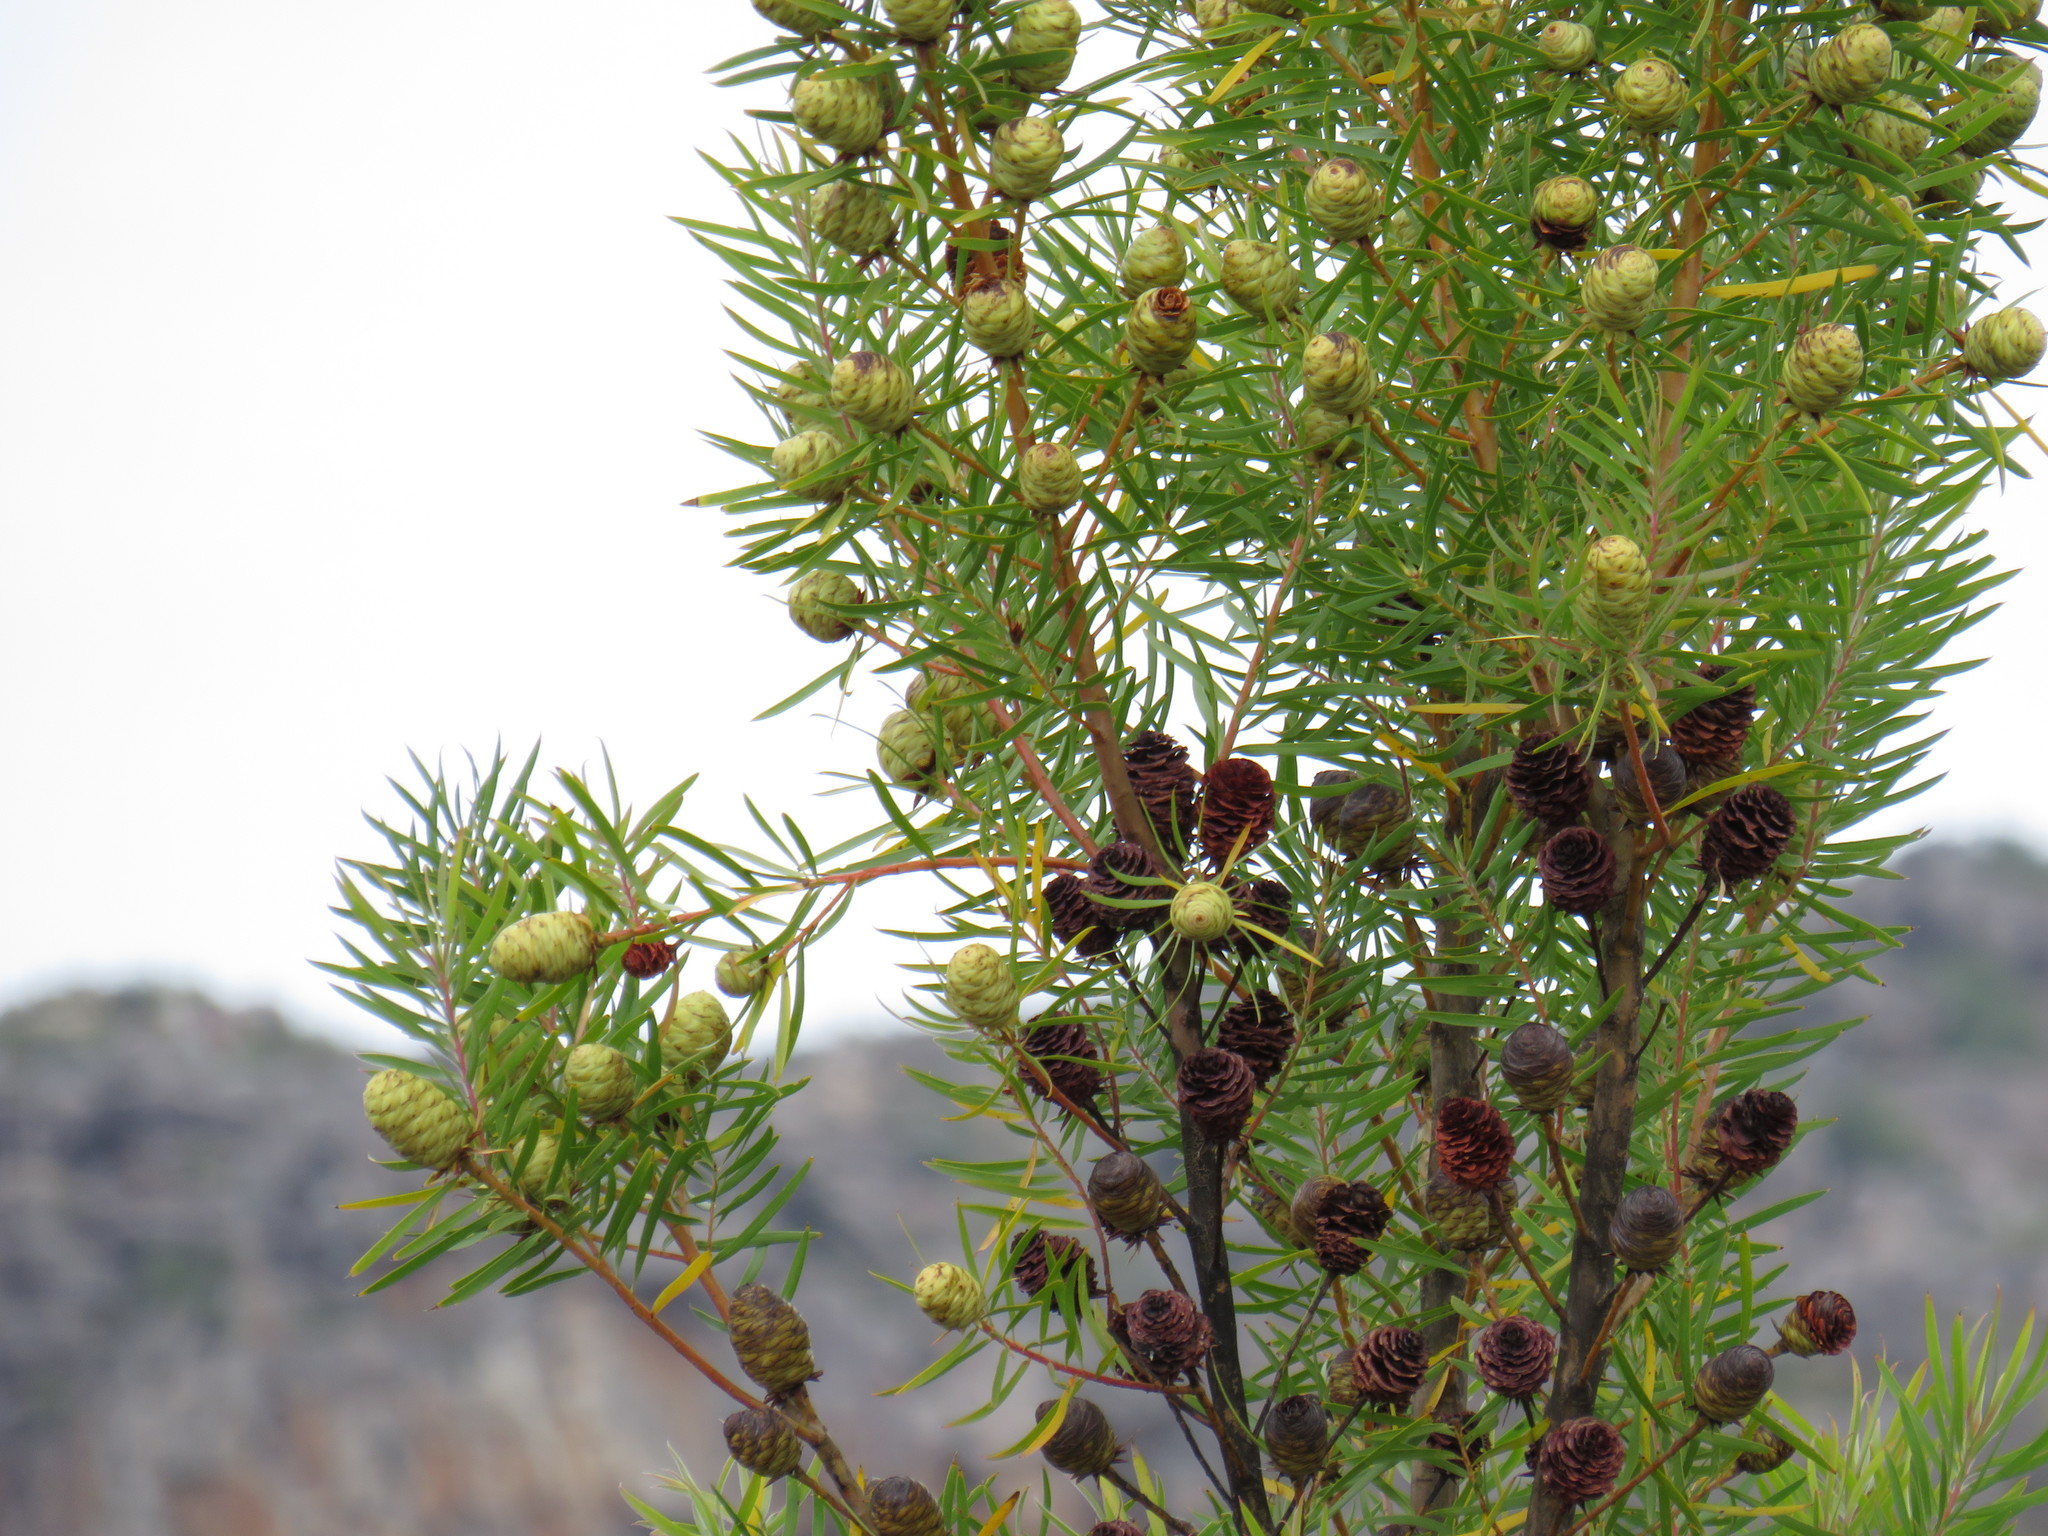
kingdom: Plantae
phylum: Tracheophyta
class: Magnoliopsida
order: Proteales
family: Proteaceae
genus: Leucadendron
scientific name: Leucadendron salicifolium
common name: Common stream conebush
